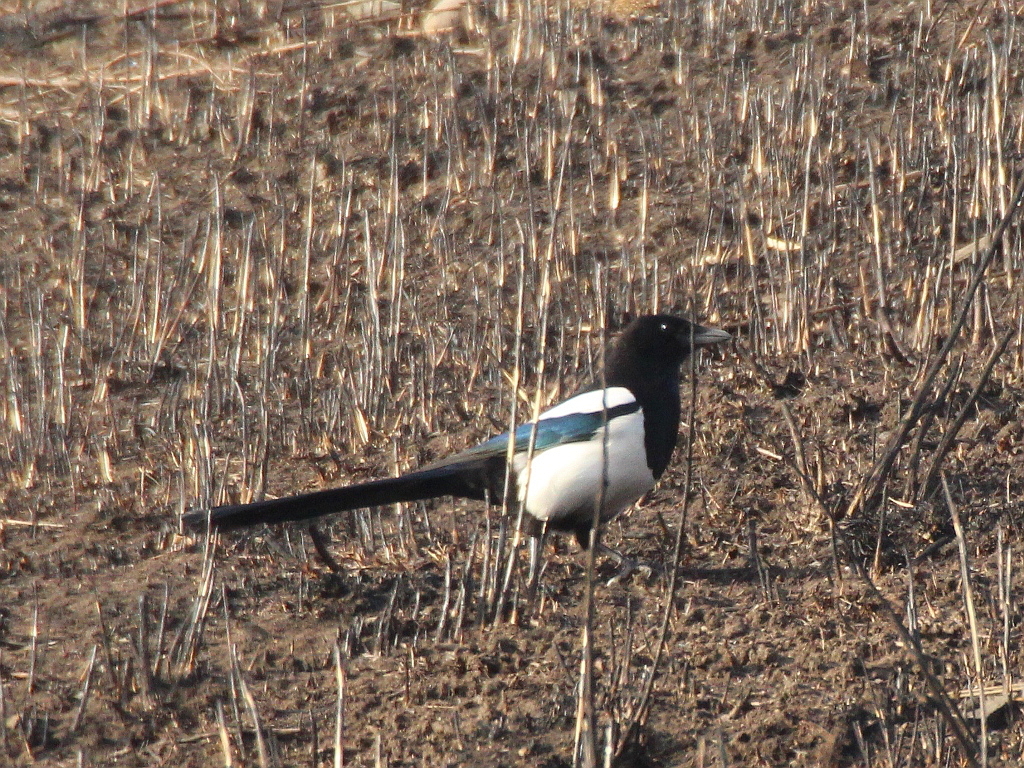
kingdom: Animalia
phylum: Chordata
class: Aves
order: Passeriformes
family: Corvidae
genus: Pica
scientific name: Pica serica
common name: Oriental magpie
